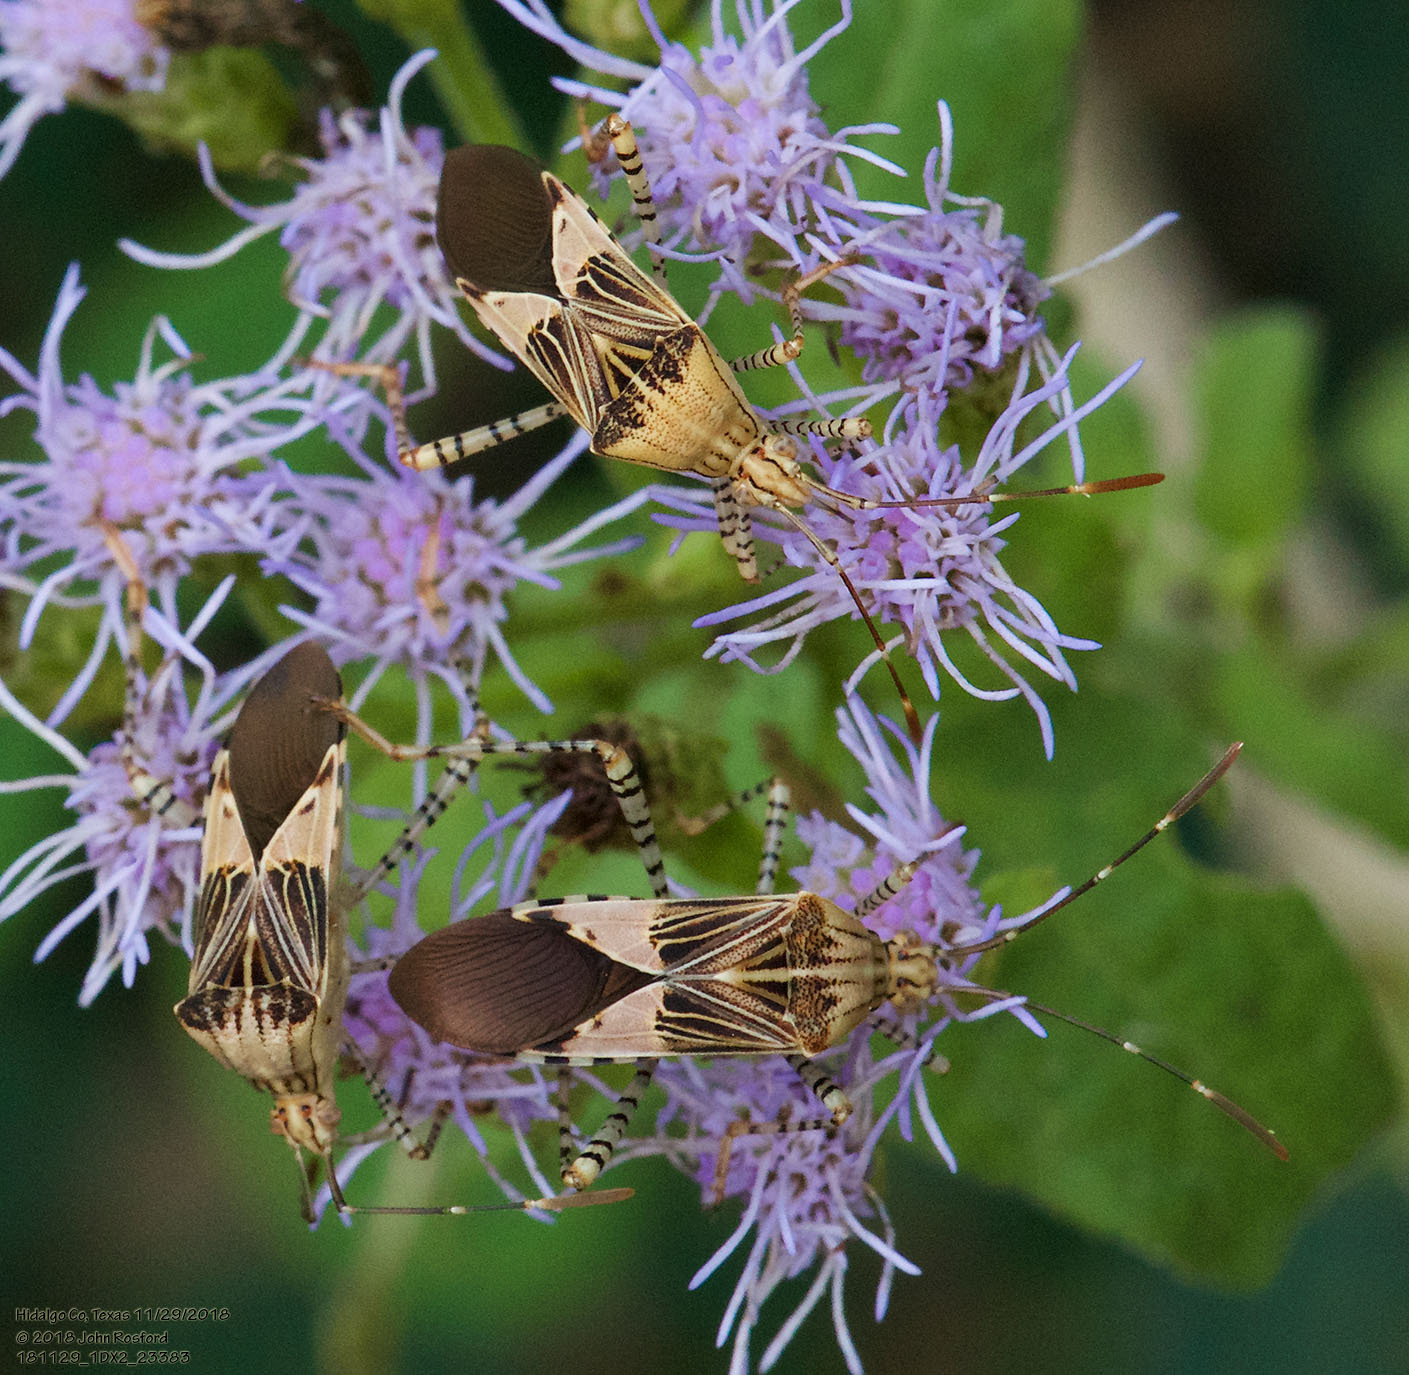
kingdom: Animalia
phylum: Arthropoda
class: Insecta
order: Hemiptera
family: Coreidae
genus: Hypselonotus
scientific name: Hypselonotus punctiventris
